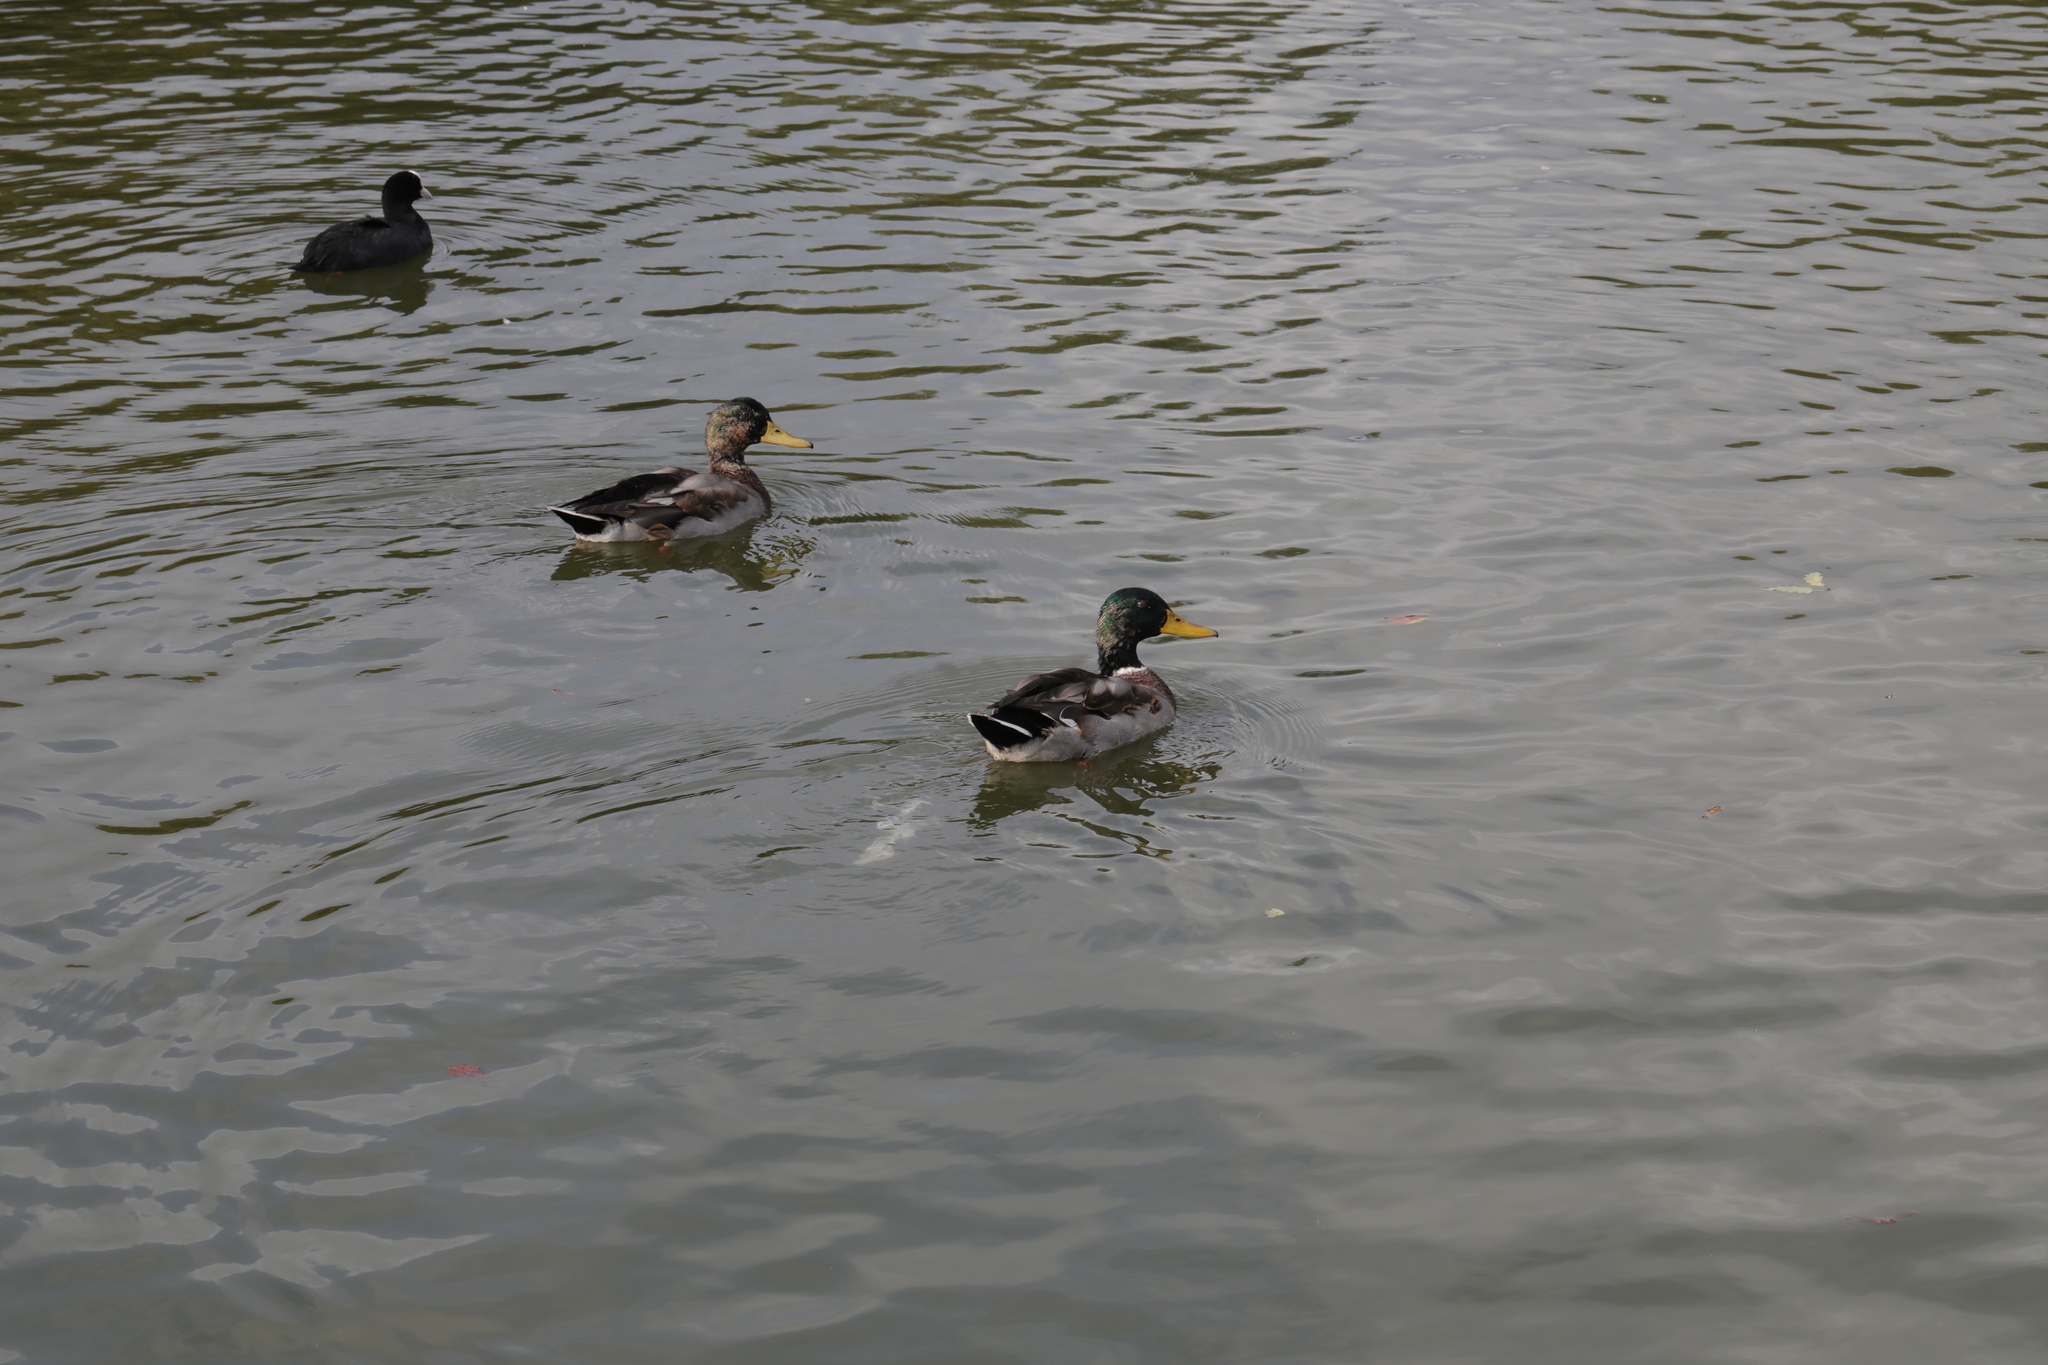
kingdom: Animalia
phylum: Chordata
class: Aves
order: Anseriformes
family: Anatidae
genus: Anas
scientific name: Anas platyrhynchos
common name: Mallard
